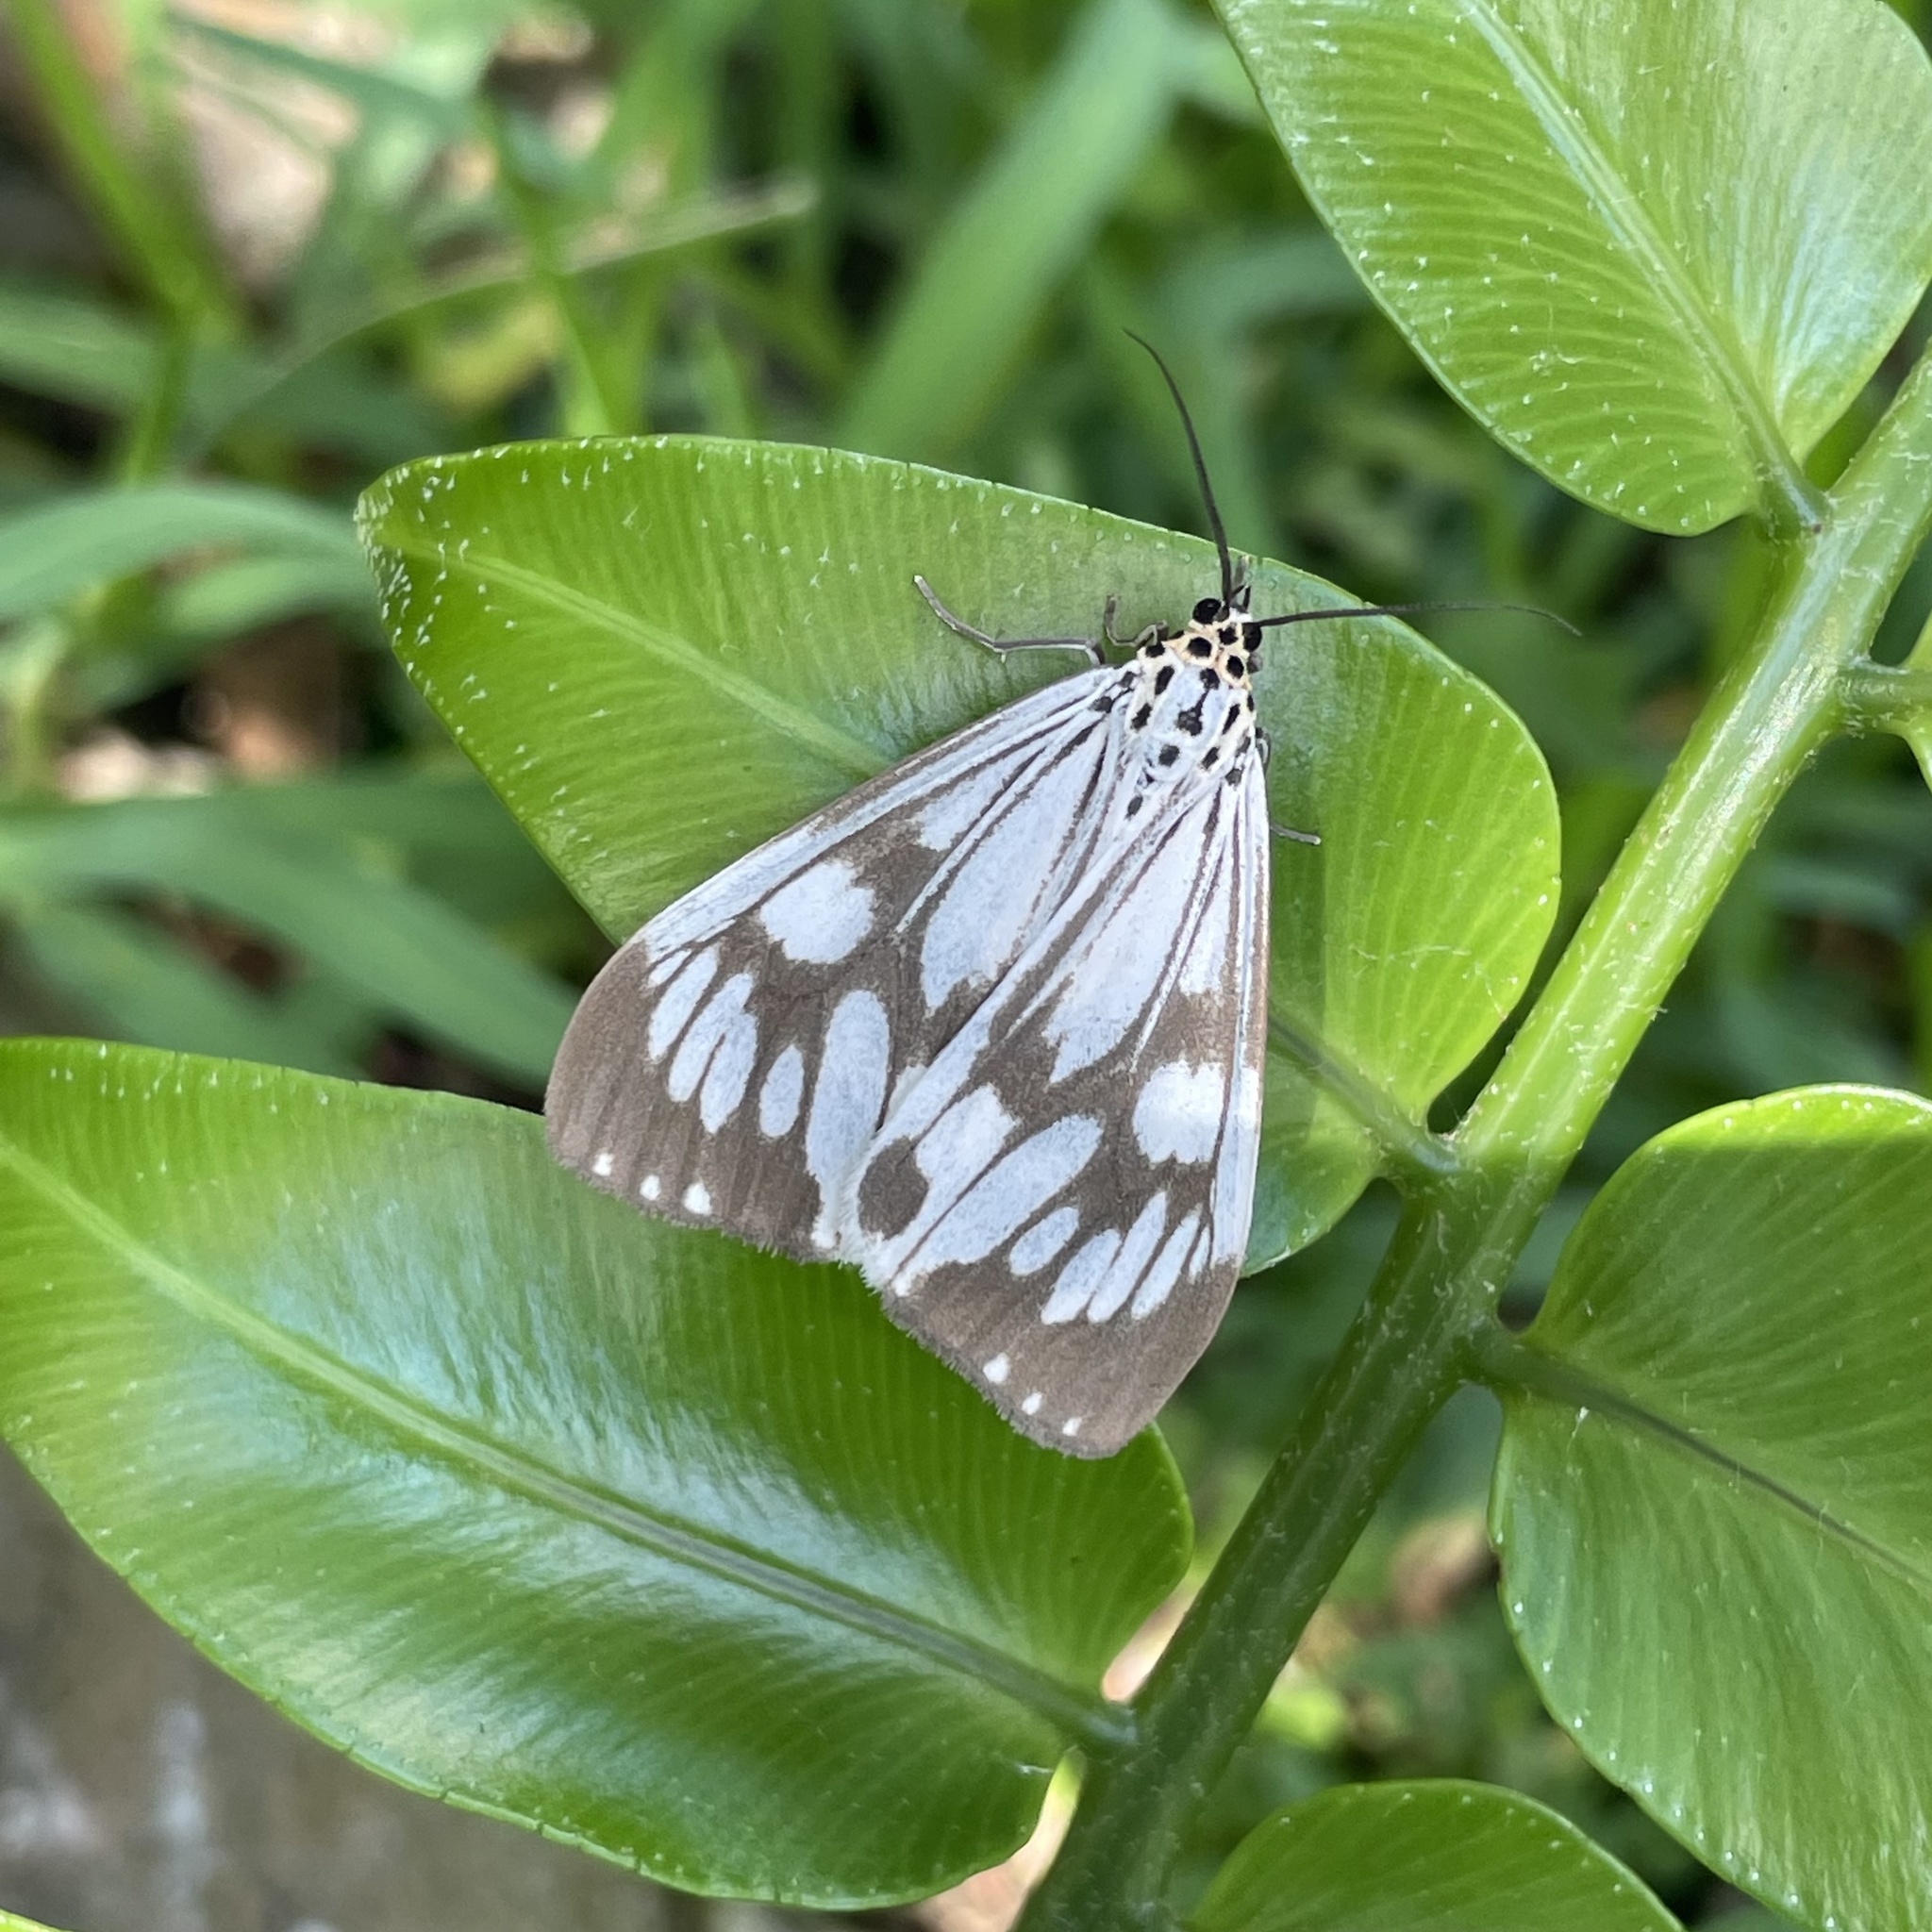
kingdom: Animalia
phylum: Arthropoda
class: Insecta
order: Lepidoptera
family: Erebidae
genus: Nyctemera
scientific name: Nyctemera adversata
